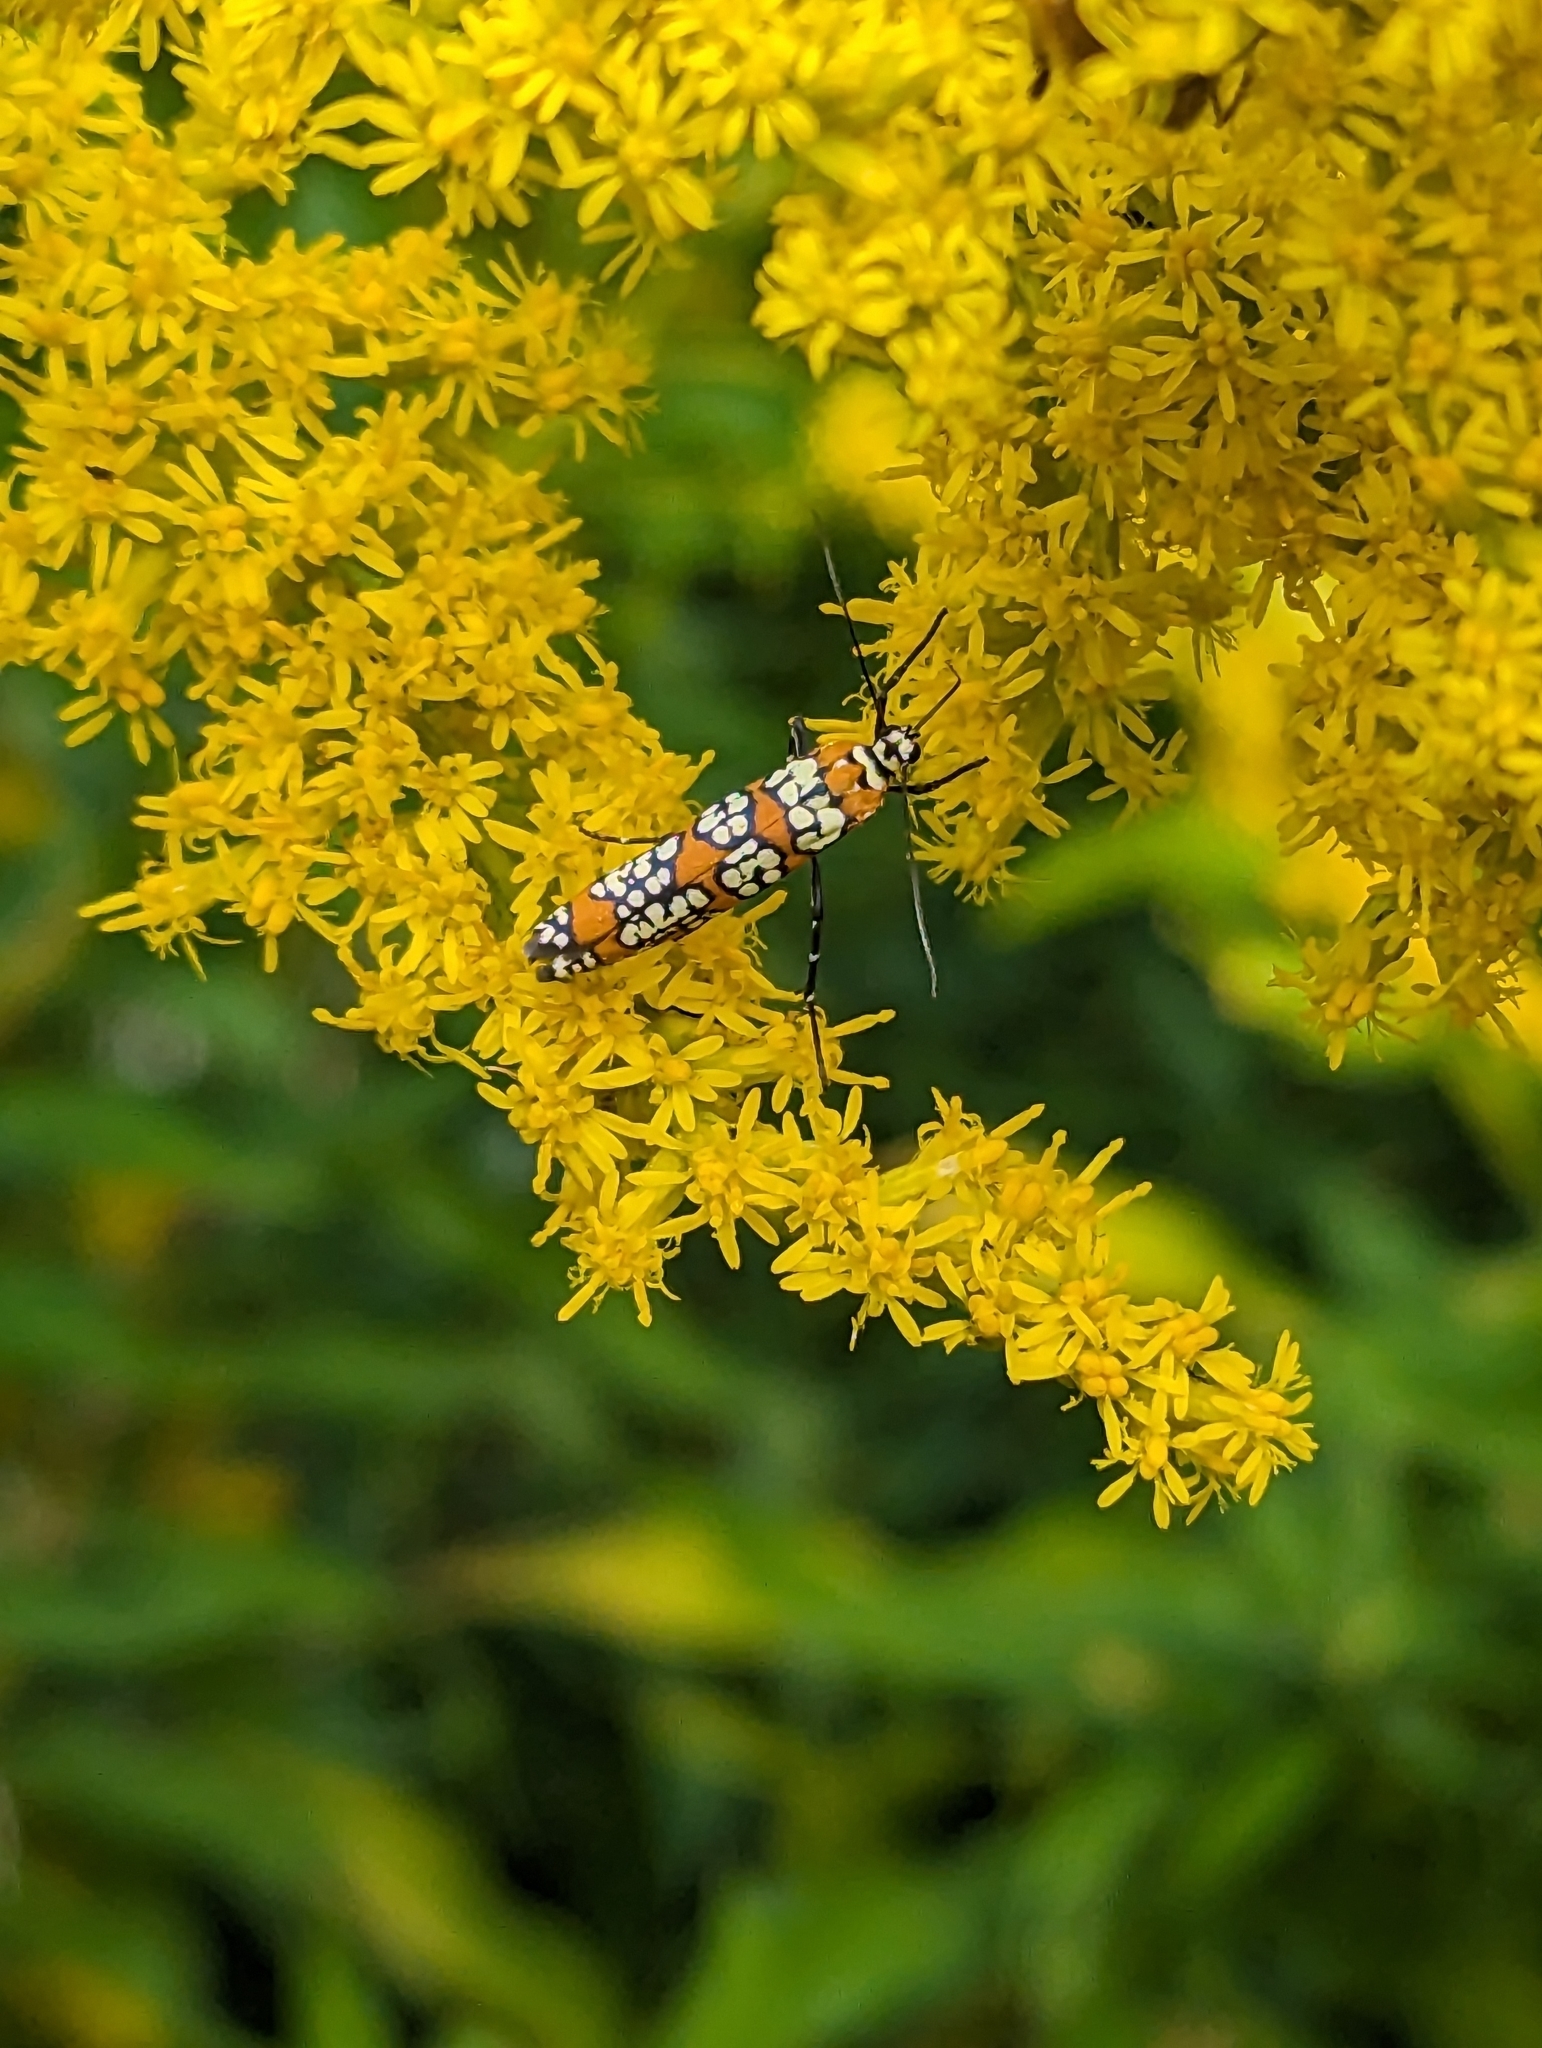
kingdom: Animalia
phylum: Arthropoda
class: Insecta
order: Lepidoptera
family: Attevidae
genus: Atteva
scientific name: Atteva punctella
